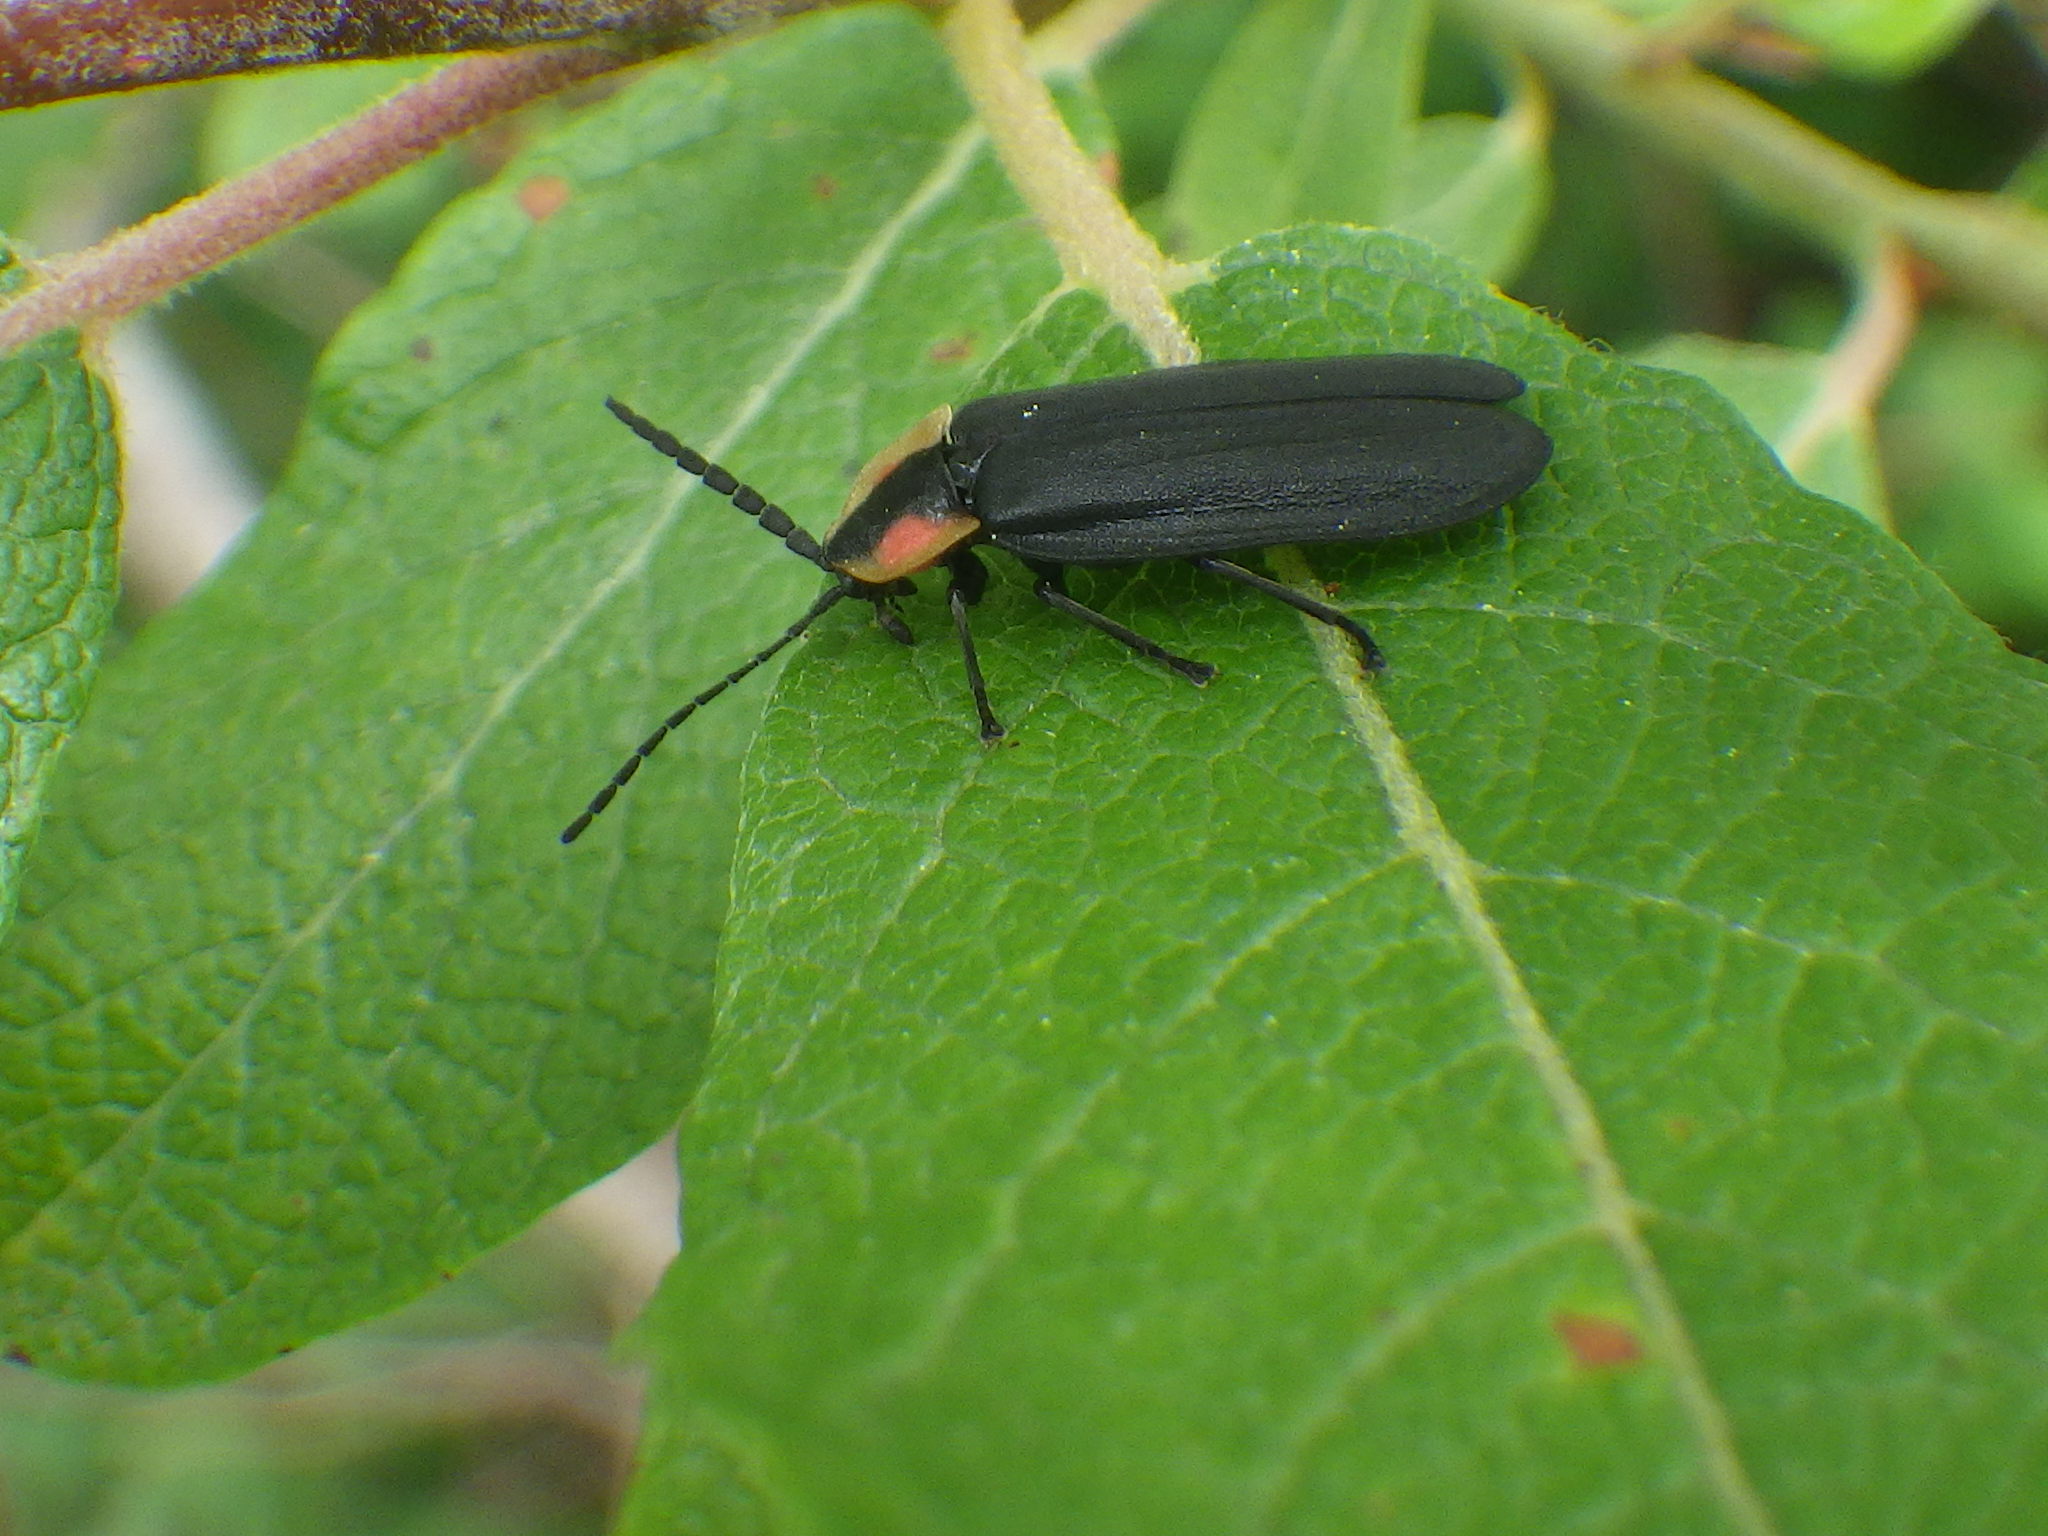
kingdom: Animalia
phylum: Arthropoda
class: Insecta
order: Coleoptera
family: Lampyridae
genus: Lucidota
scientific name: Lucidota atra
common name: Black firefly
